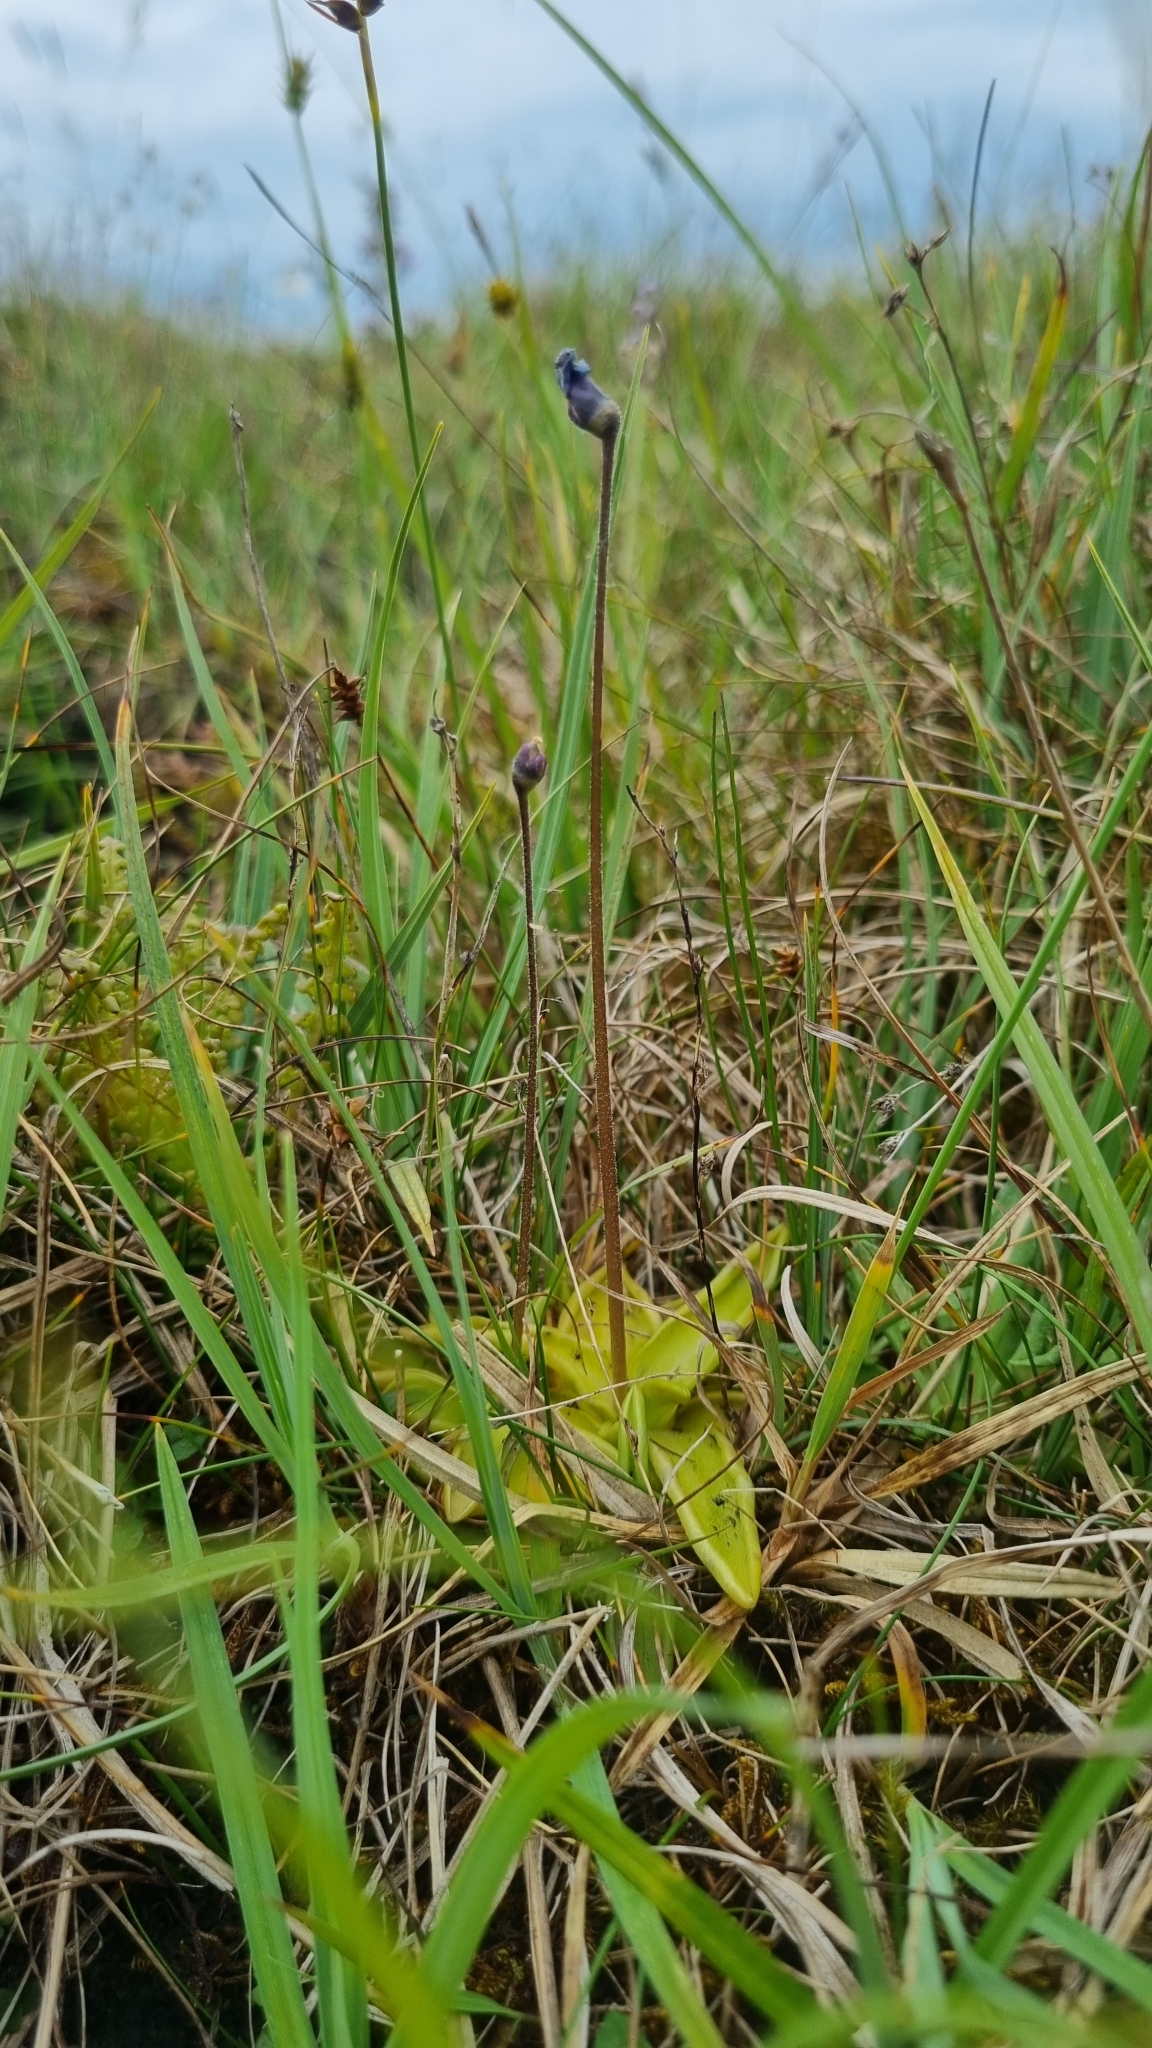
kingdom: Plantae
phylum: Tracheophyta
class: Magnoliopsida
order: Lamiales
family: Lentibulariaceae
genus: Pinguicula
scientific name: Pinguicula vulgaris
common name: Common butterwort
